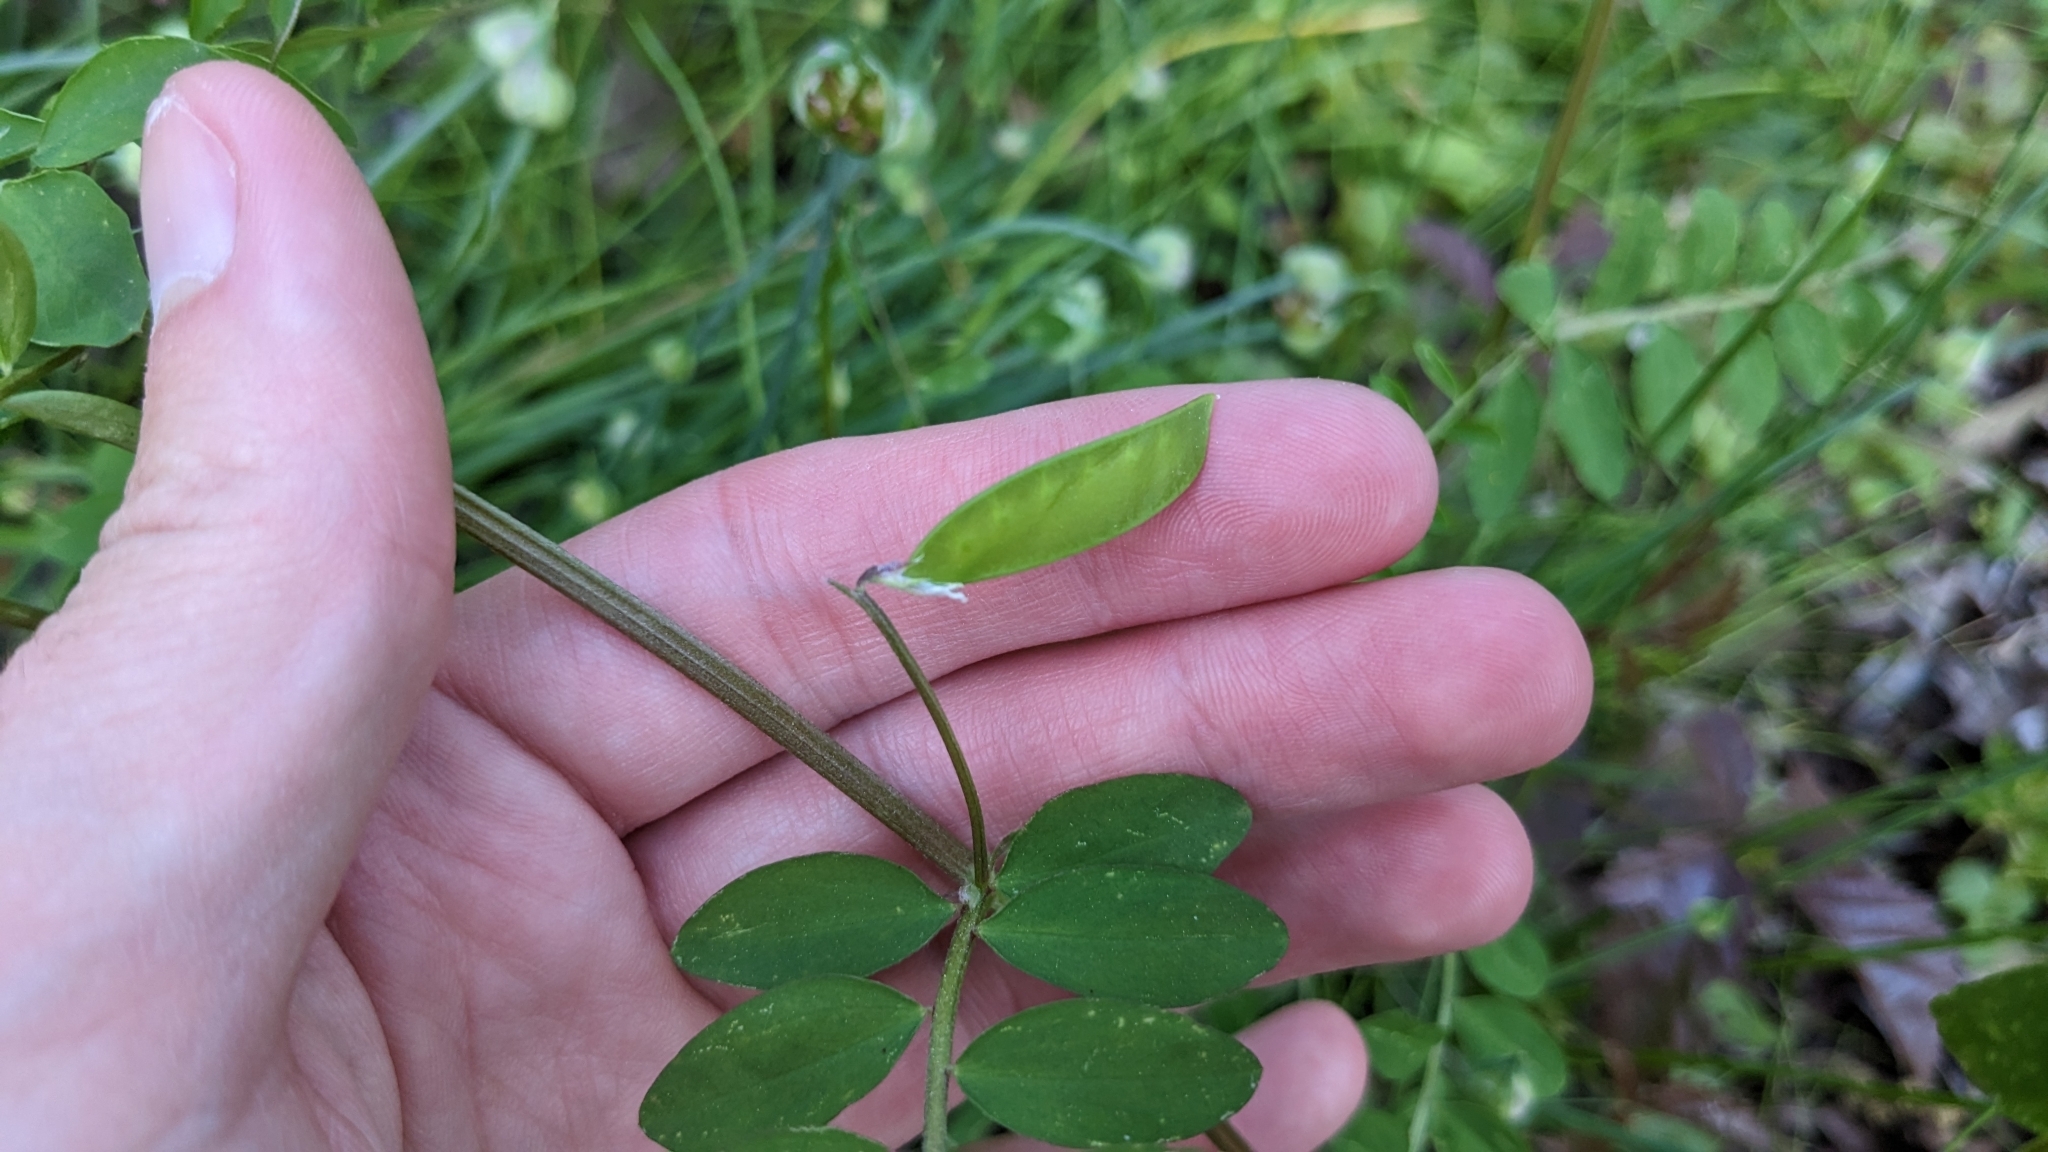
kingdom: Plantae
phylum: Tracheophyta
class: Magnoliopsida
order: Fabales
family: Fabaceae
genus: Vicia
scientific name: Vicia ludoviciana
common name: Louisiana vetch
